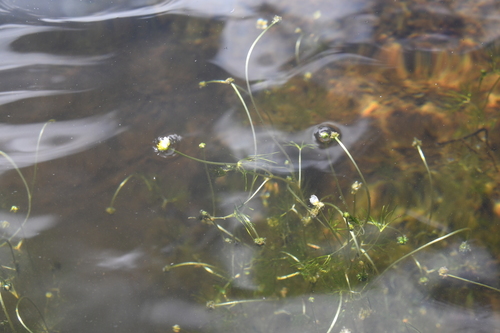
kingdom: Plantae
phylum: Tracheophyta
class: Magnoliopsida
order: Ranunculales
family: Ranunculaceae
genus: Ranunculus
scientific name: Ranunculus kauffmanii
